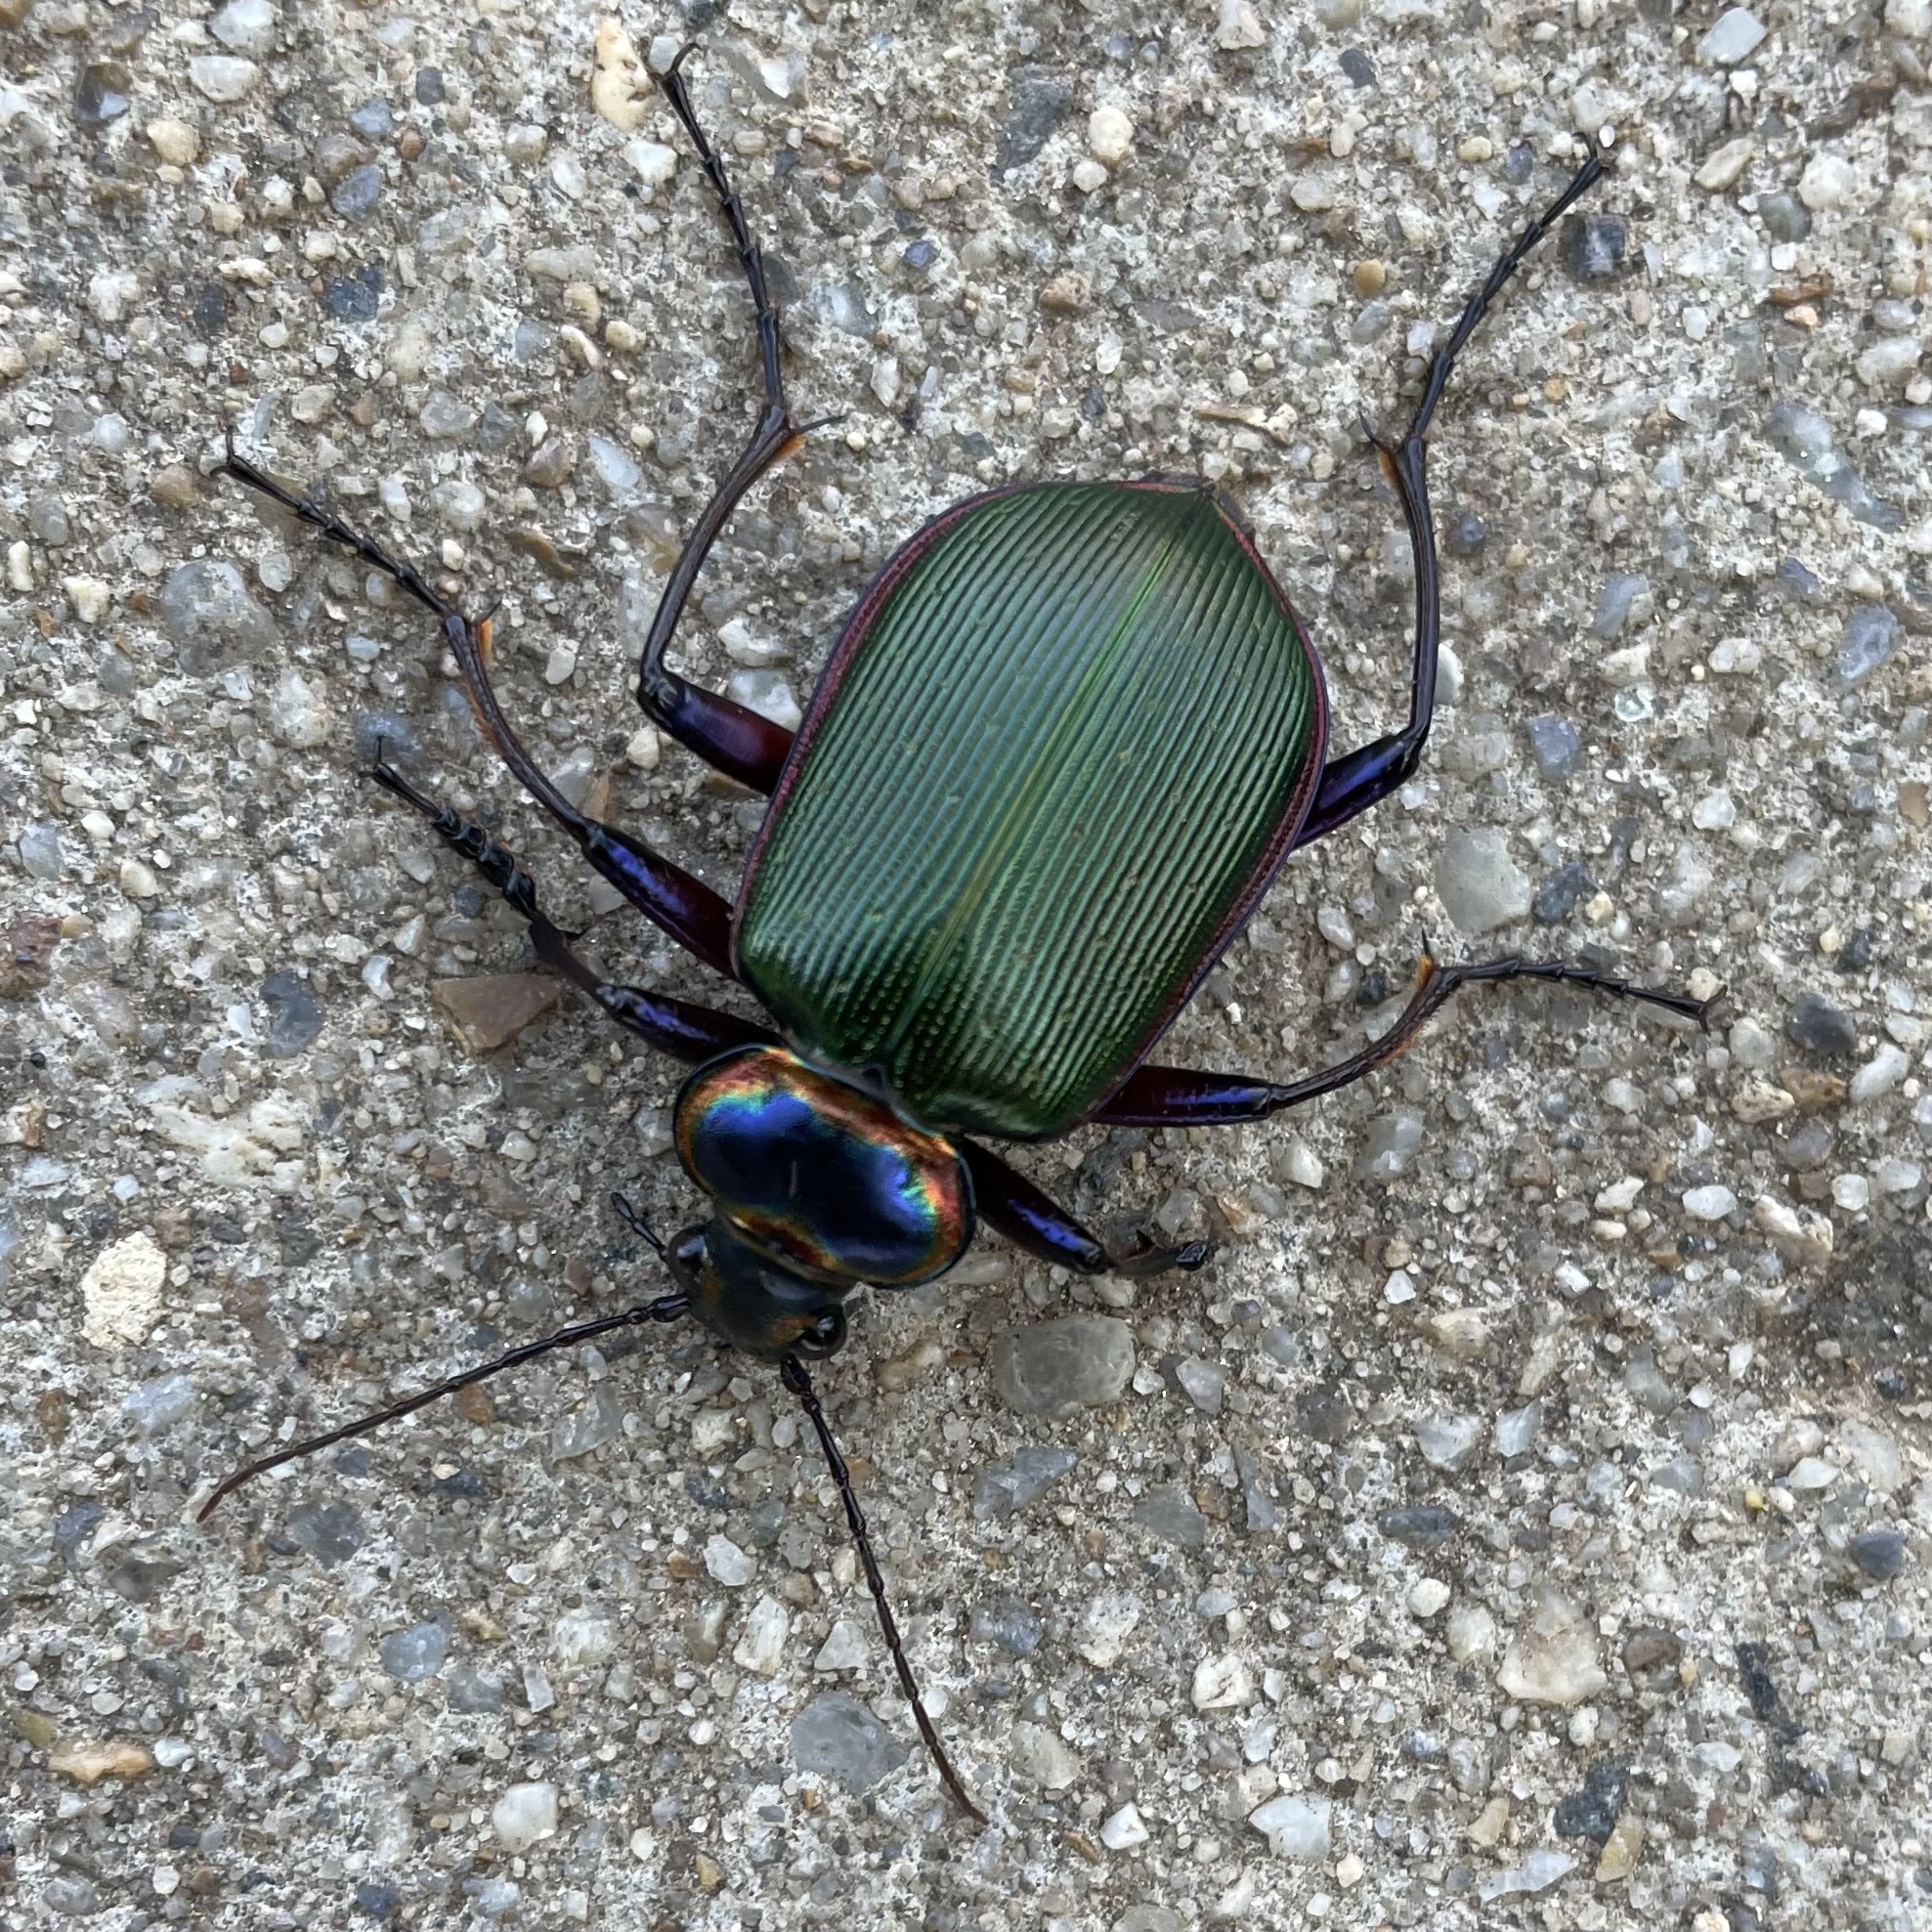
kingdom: Animalia
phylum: Arthropoda
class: Insecta
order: Coleoptera
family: Carabidae
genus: Calosoma
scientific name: Calosoma scrutator
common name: Fiery searcher beetle
